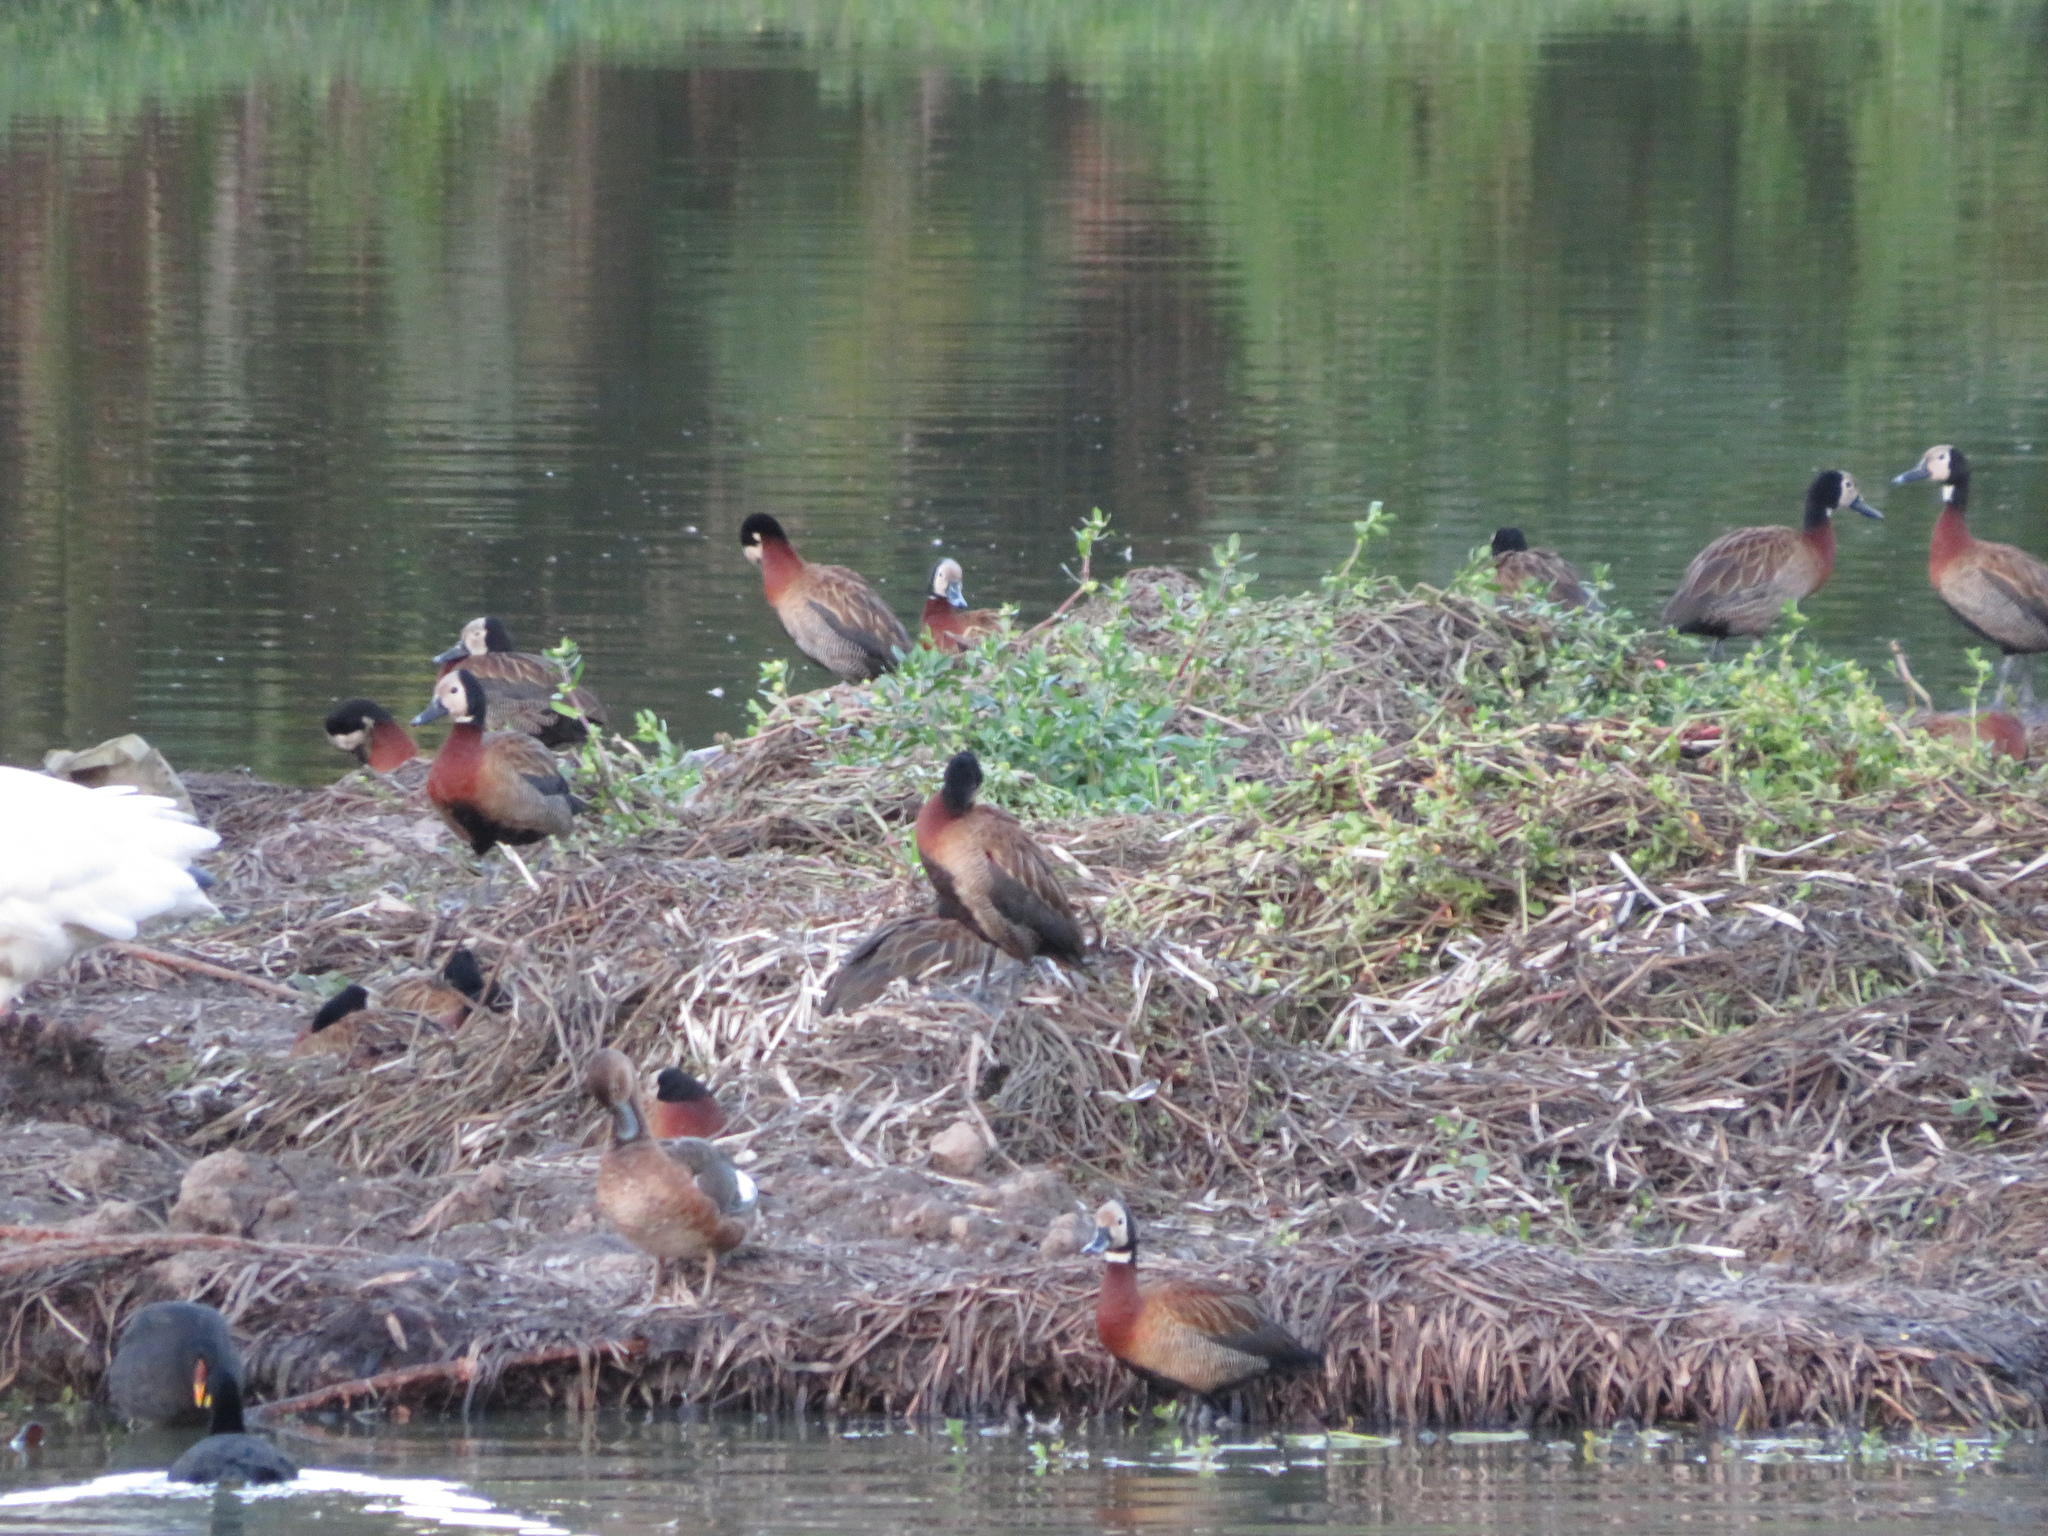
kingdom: Animalia
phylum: Chordata
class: Aves
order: Anseriformes
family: Anatidae
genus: Dendrocygna
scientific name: Dendrocygna viduata
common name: White-faced whistling duck
